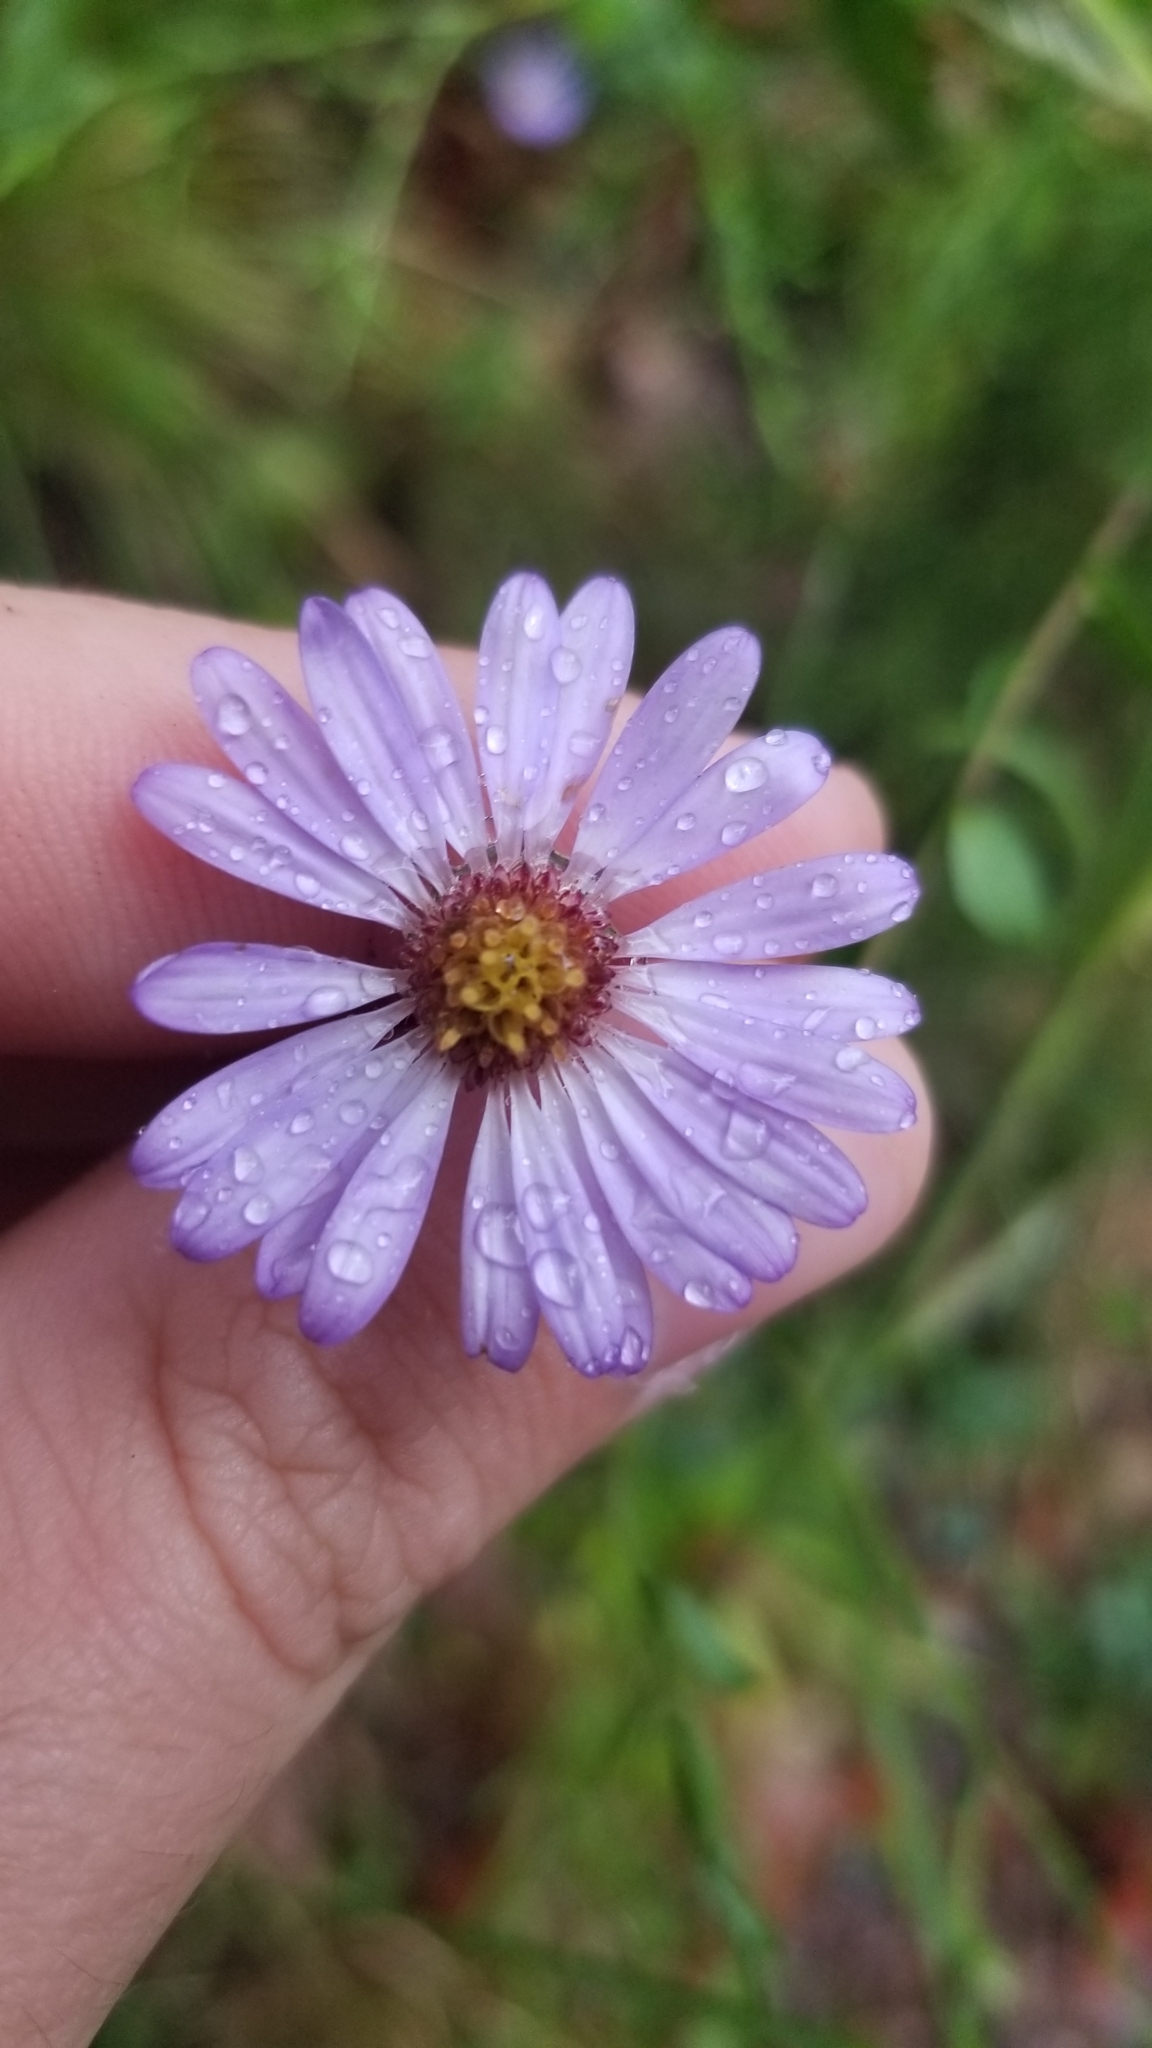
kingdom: Plantae
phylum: Tracheophyta
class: Magnoliopsida
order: Asterales
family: Asteraceae
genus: Symphyotrichum
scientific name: Symphyotrichum patens
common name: Late purple aster
